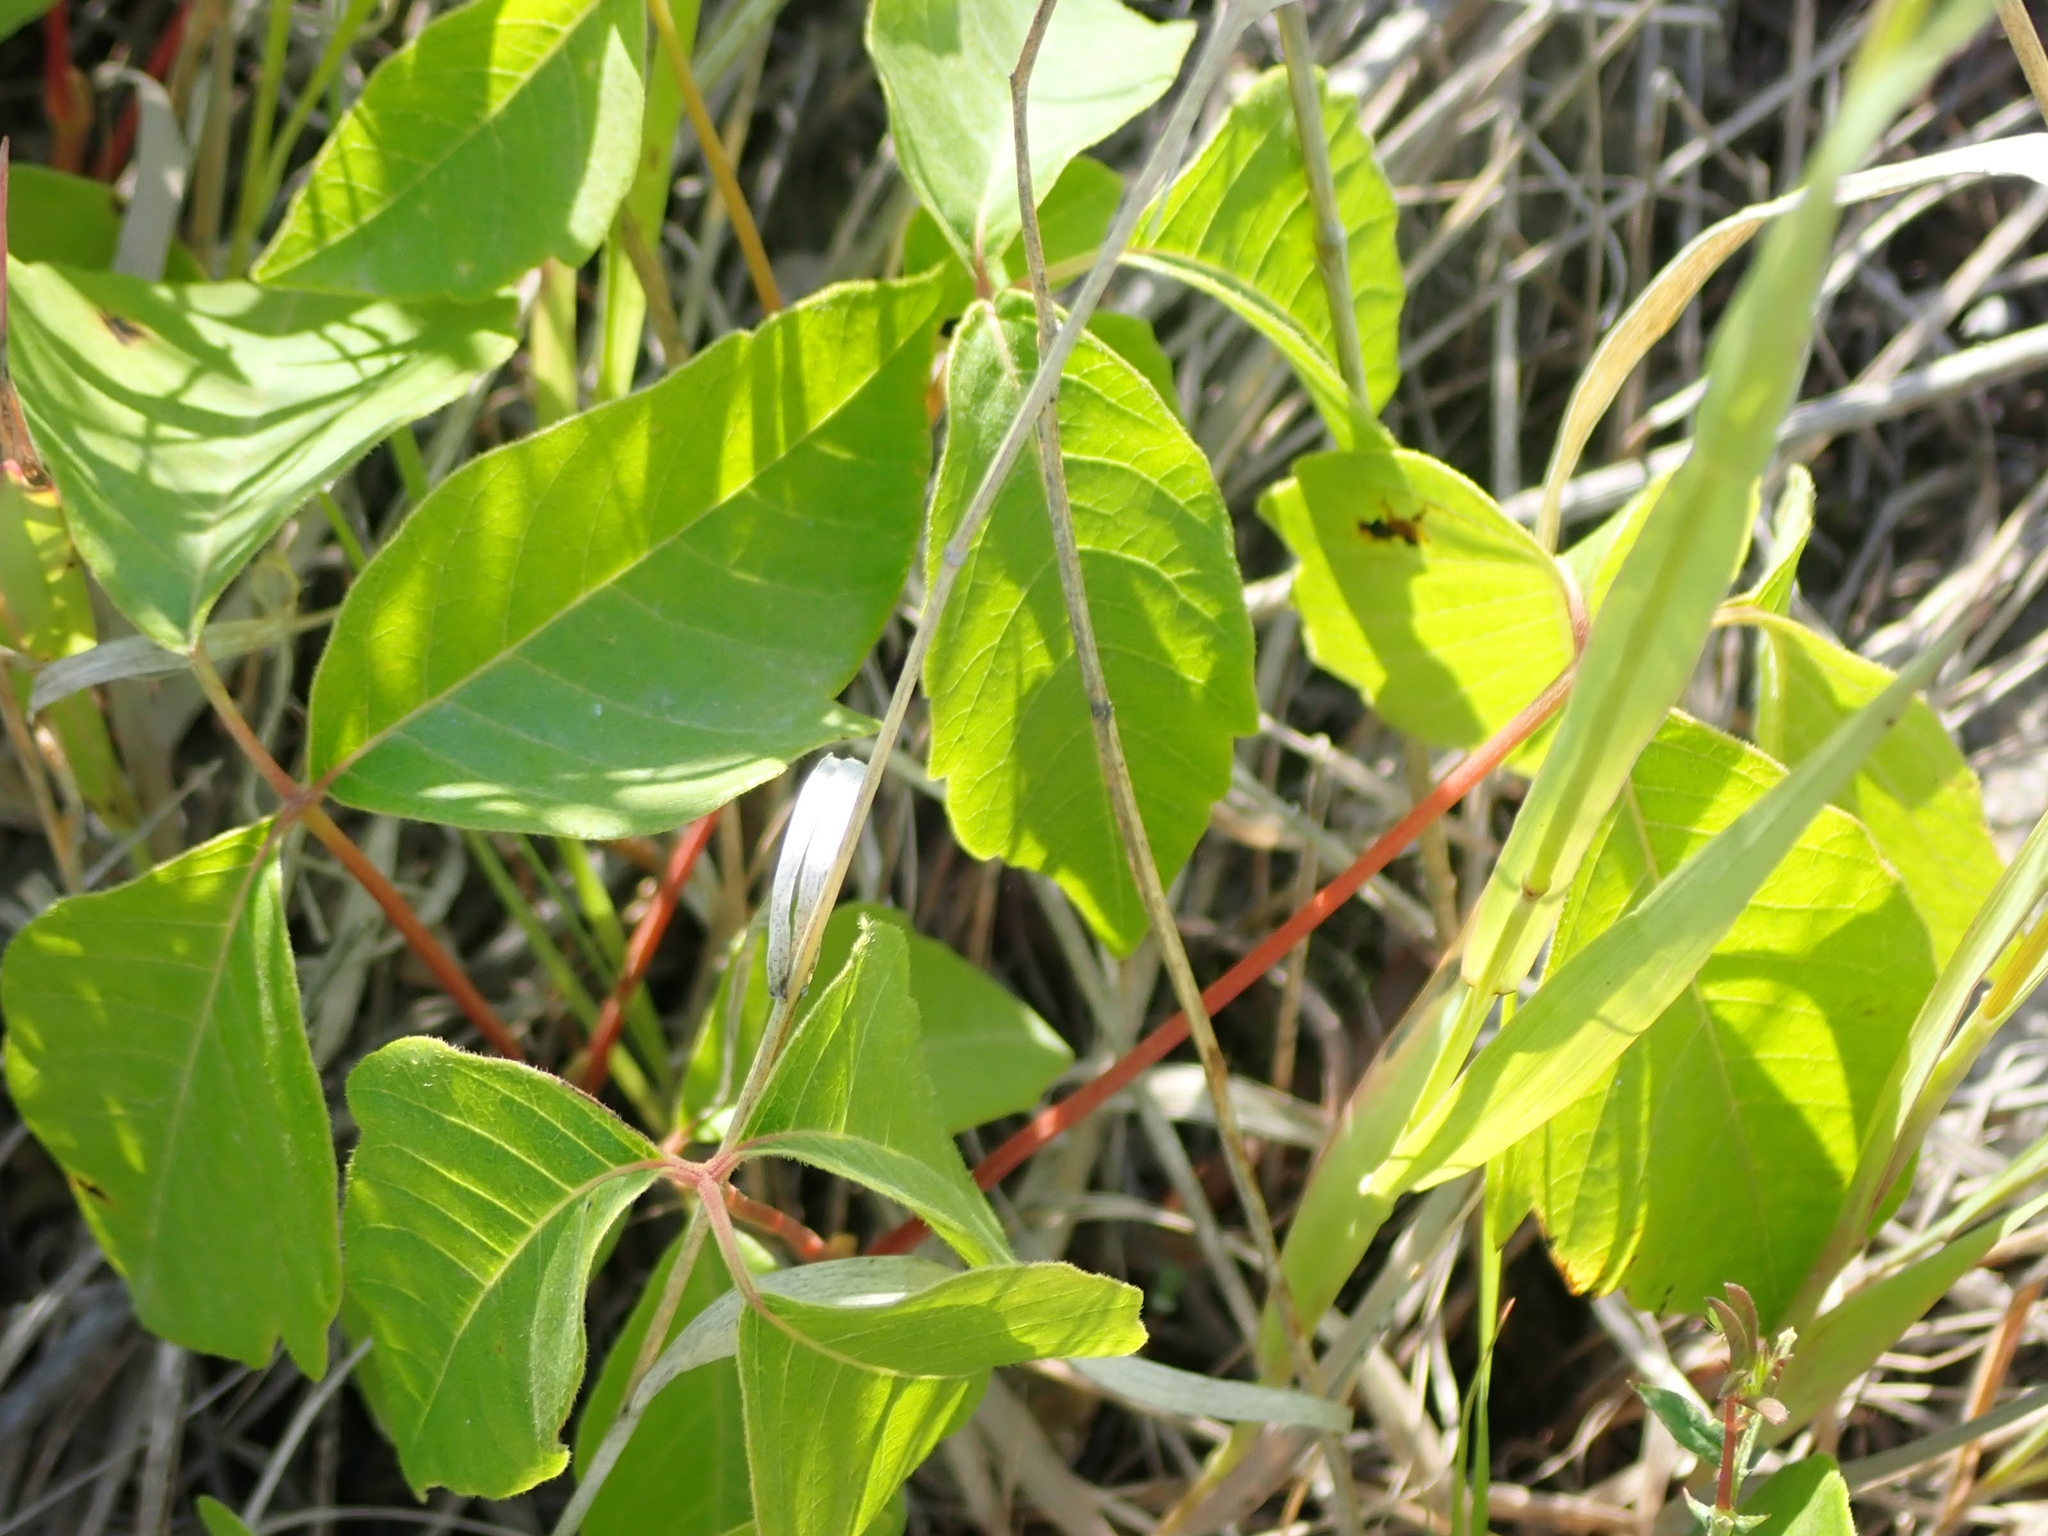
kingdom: Plantae
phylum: Tracheophyta
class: Magnoliopsida
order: Sapindales
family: Anacardiaceae
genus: Toxicodendron
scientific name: Toxicodendron rydbergii
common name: Rydberg's poison-ivy
